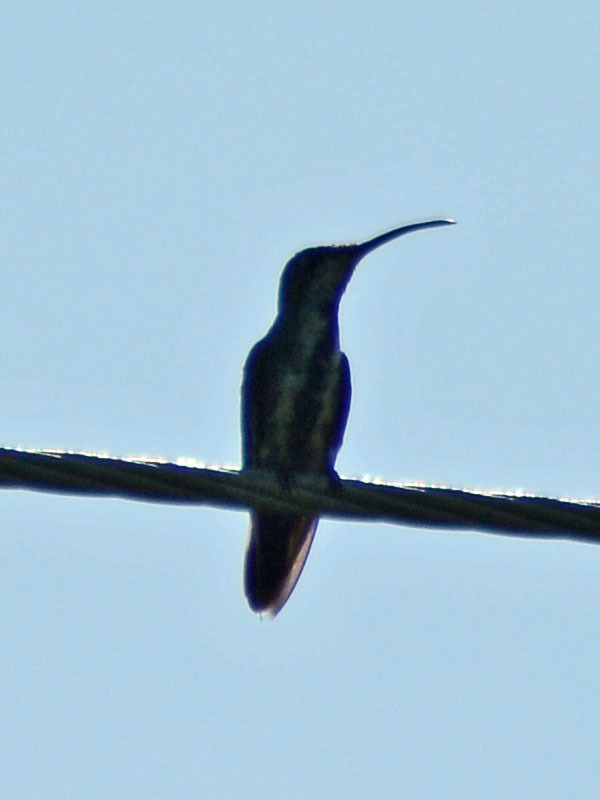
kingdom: Animalia
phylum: Chordata
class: Aves
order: Apodiformes
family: Trochilidae
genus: Anthracothorax
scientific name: Anthracothorax prevostii
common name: Green-breasted mango
